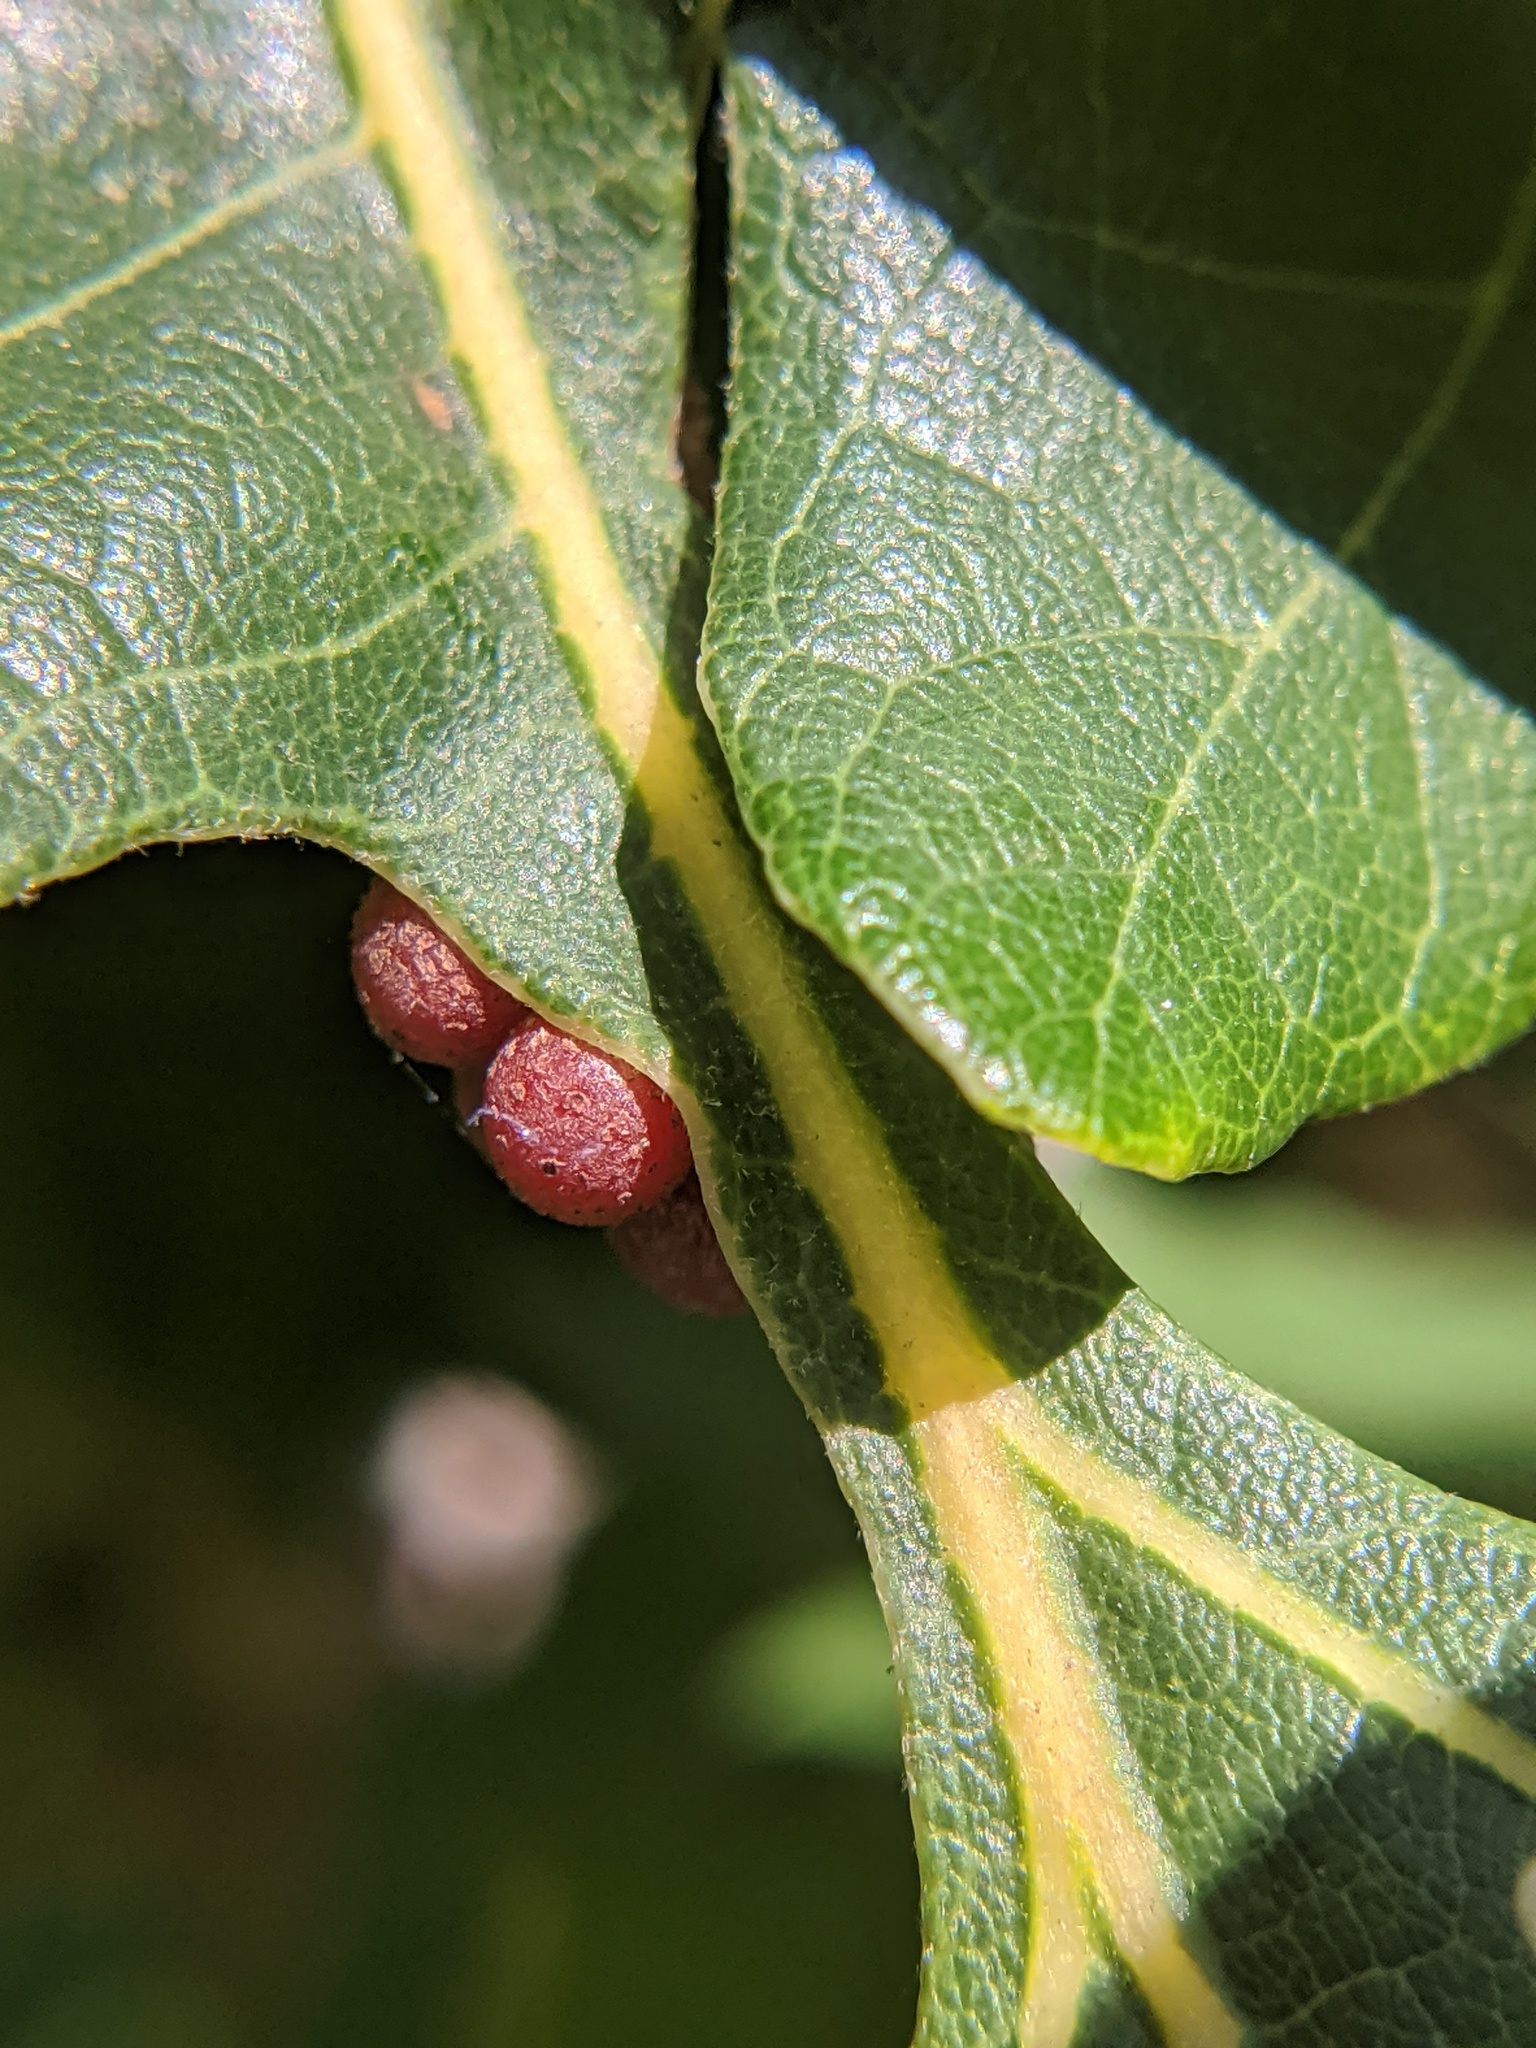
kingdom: Animalia
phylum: Arthropoda
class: Insecta
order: Hymenoptera
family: Cynipidae
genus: Andricus
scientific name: Andricus
